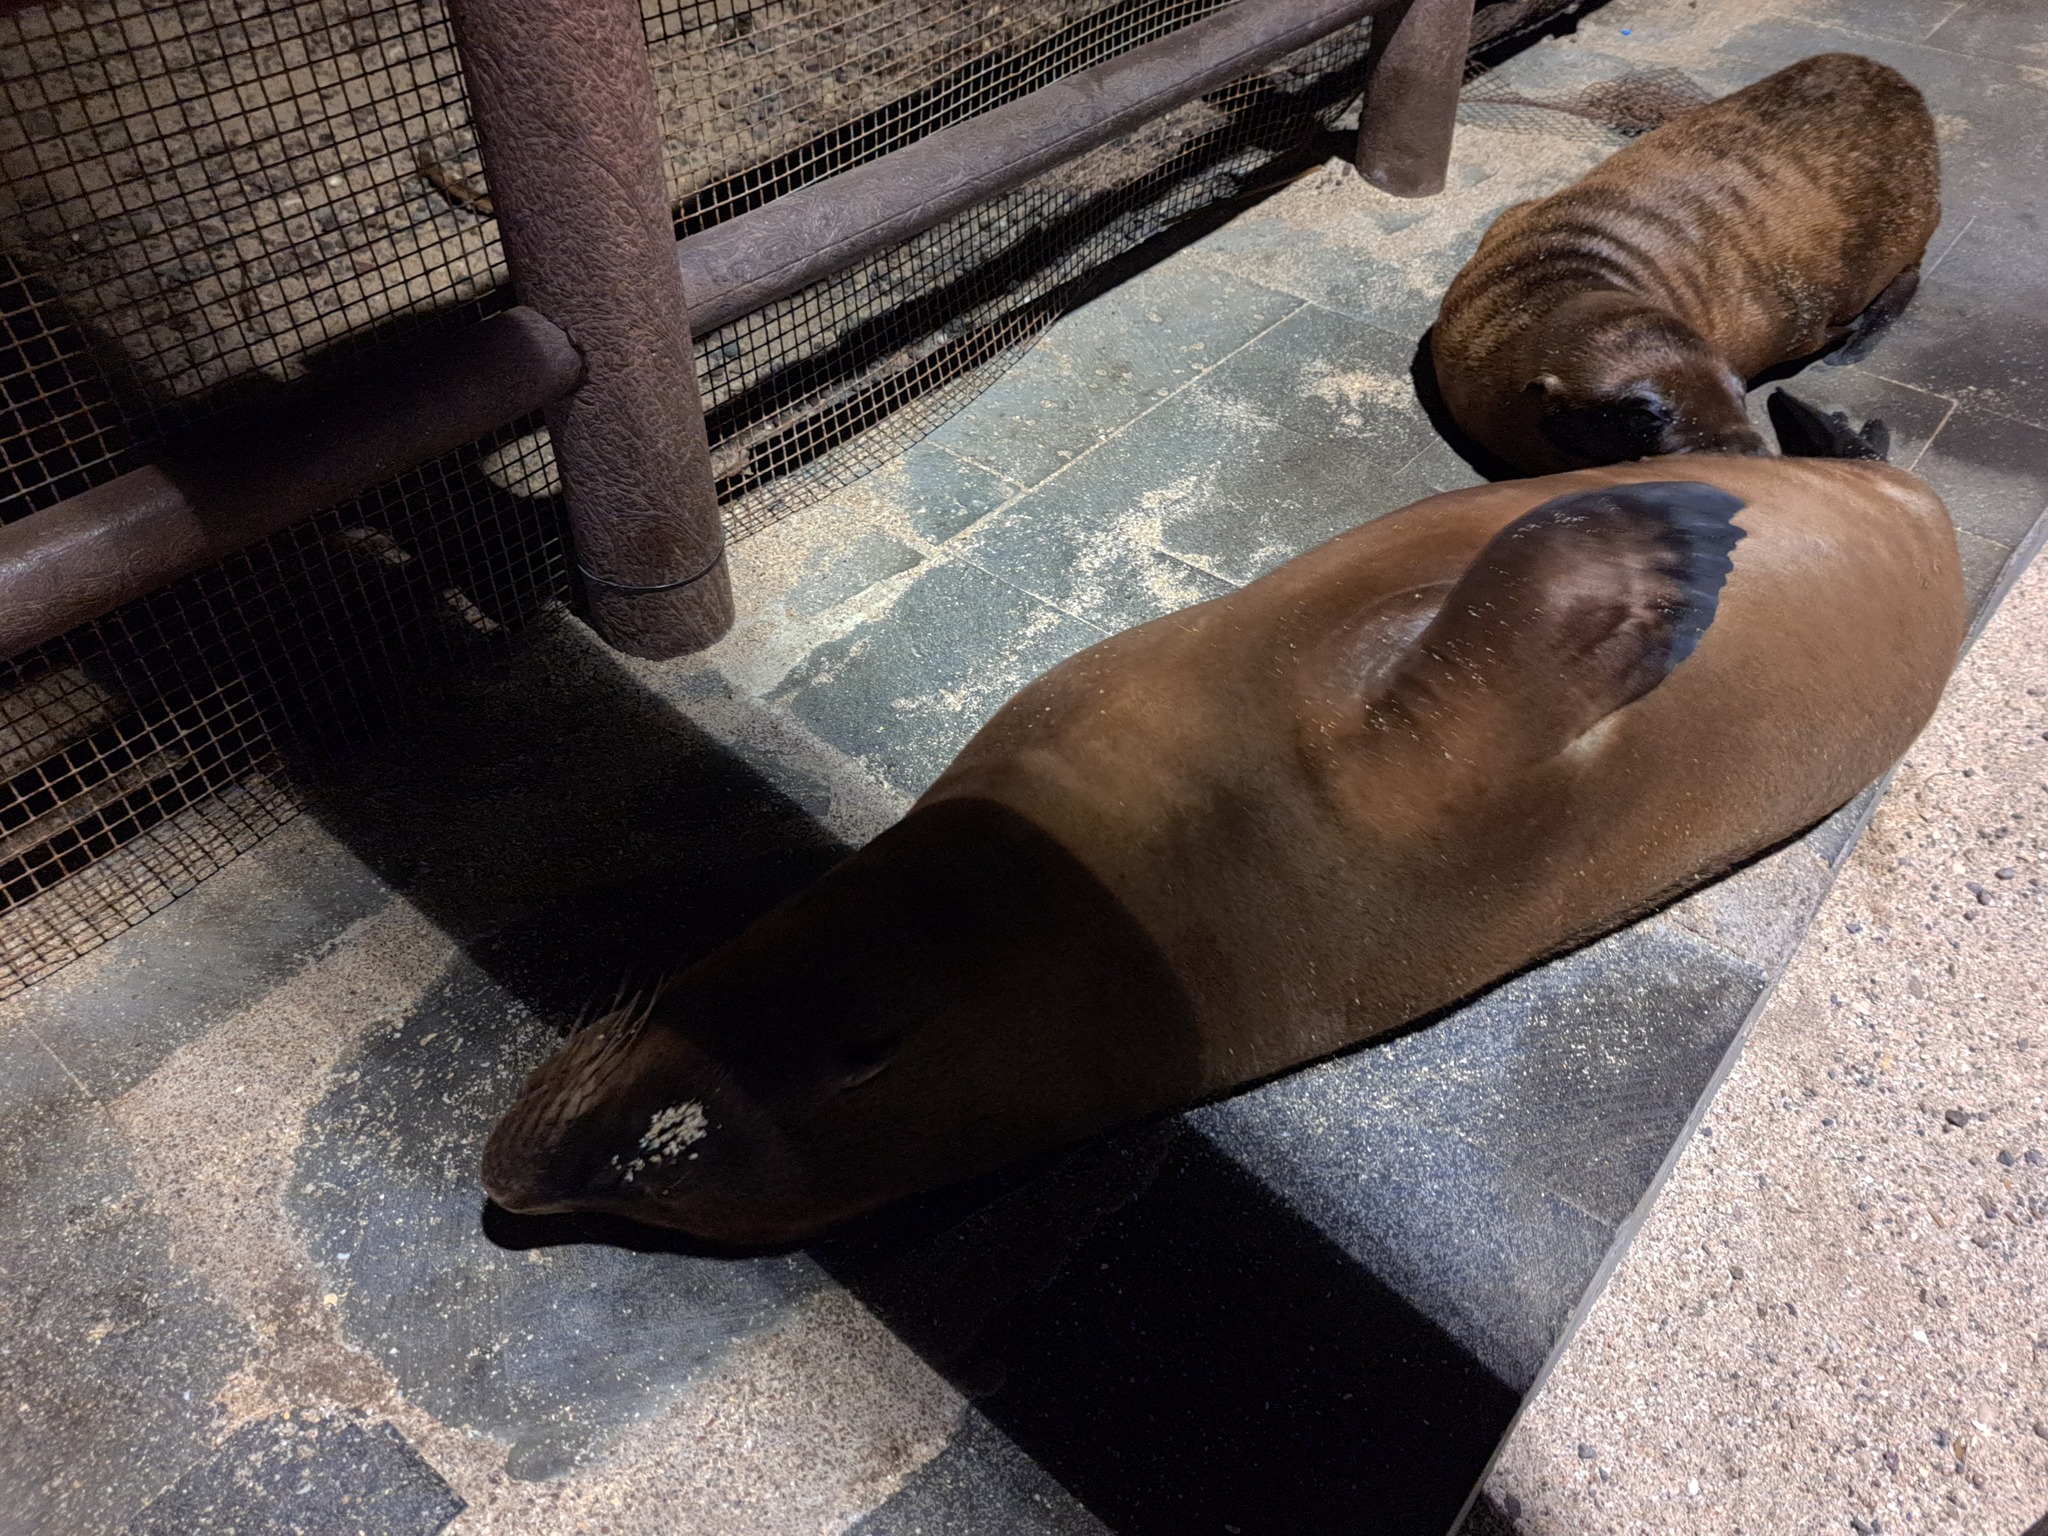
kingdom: Animalia
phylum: Chordata
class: Mammalia
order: Carnivora
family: Otariidae
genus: Zalophus
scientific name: Zalophus wollebaeki
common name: Galapagos sea lion
